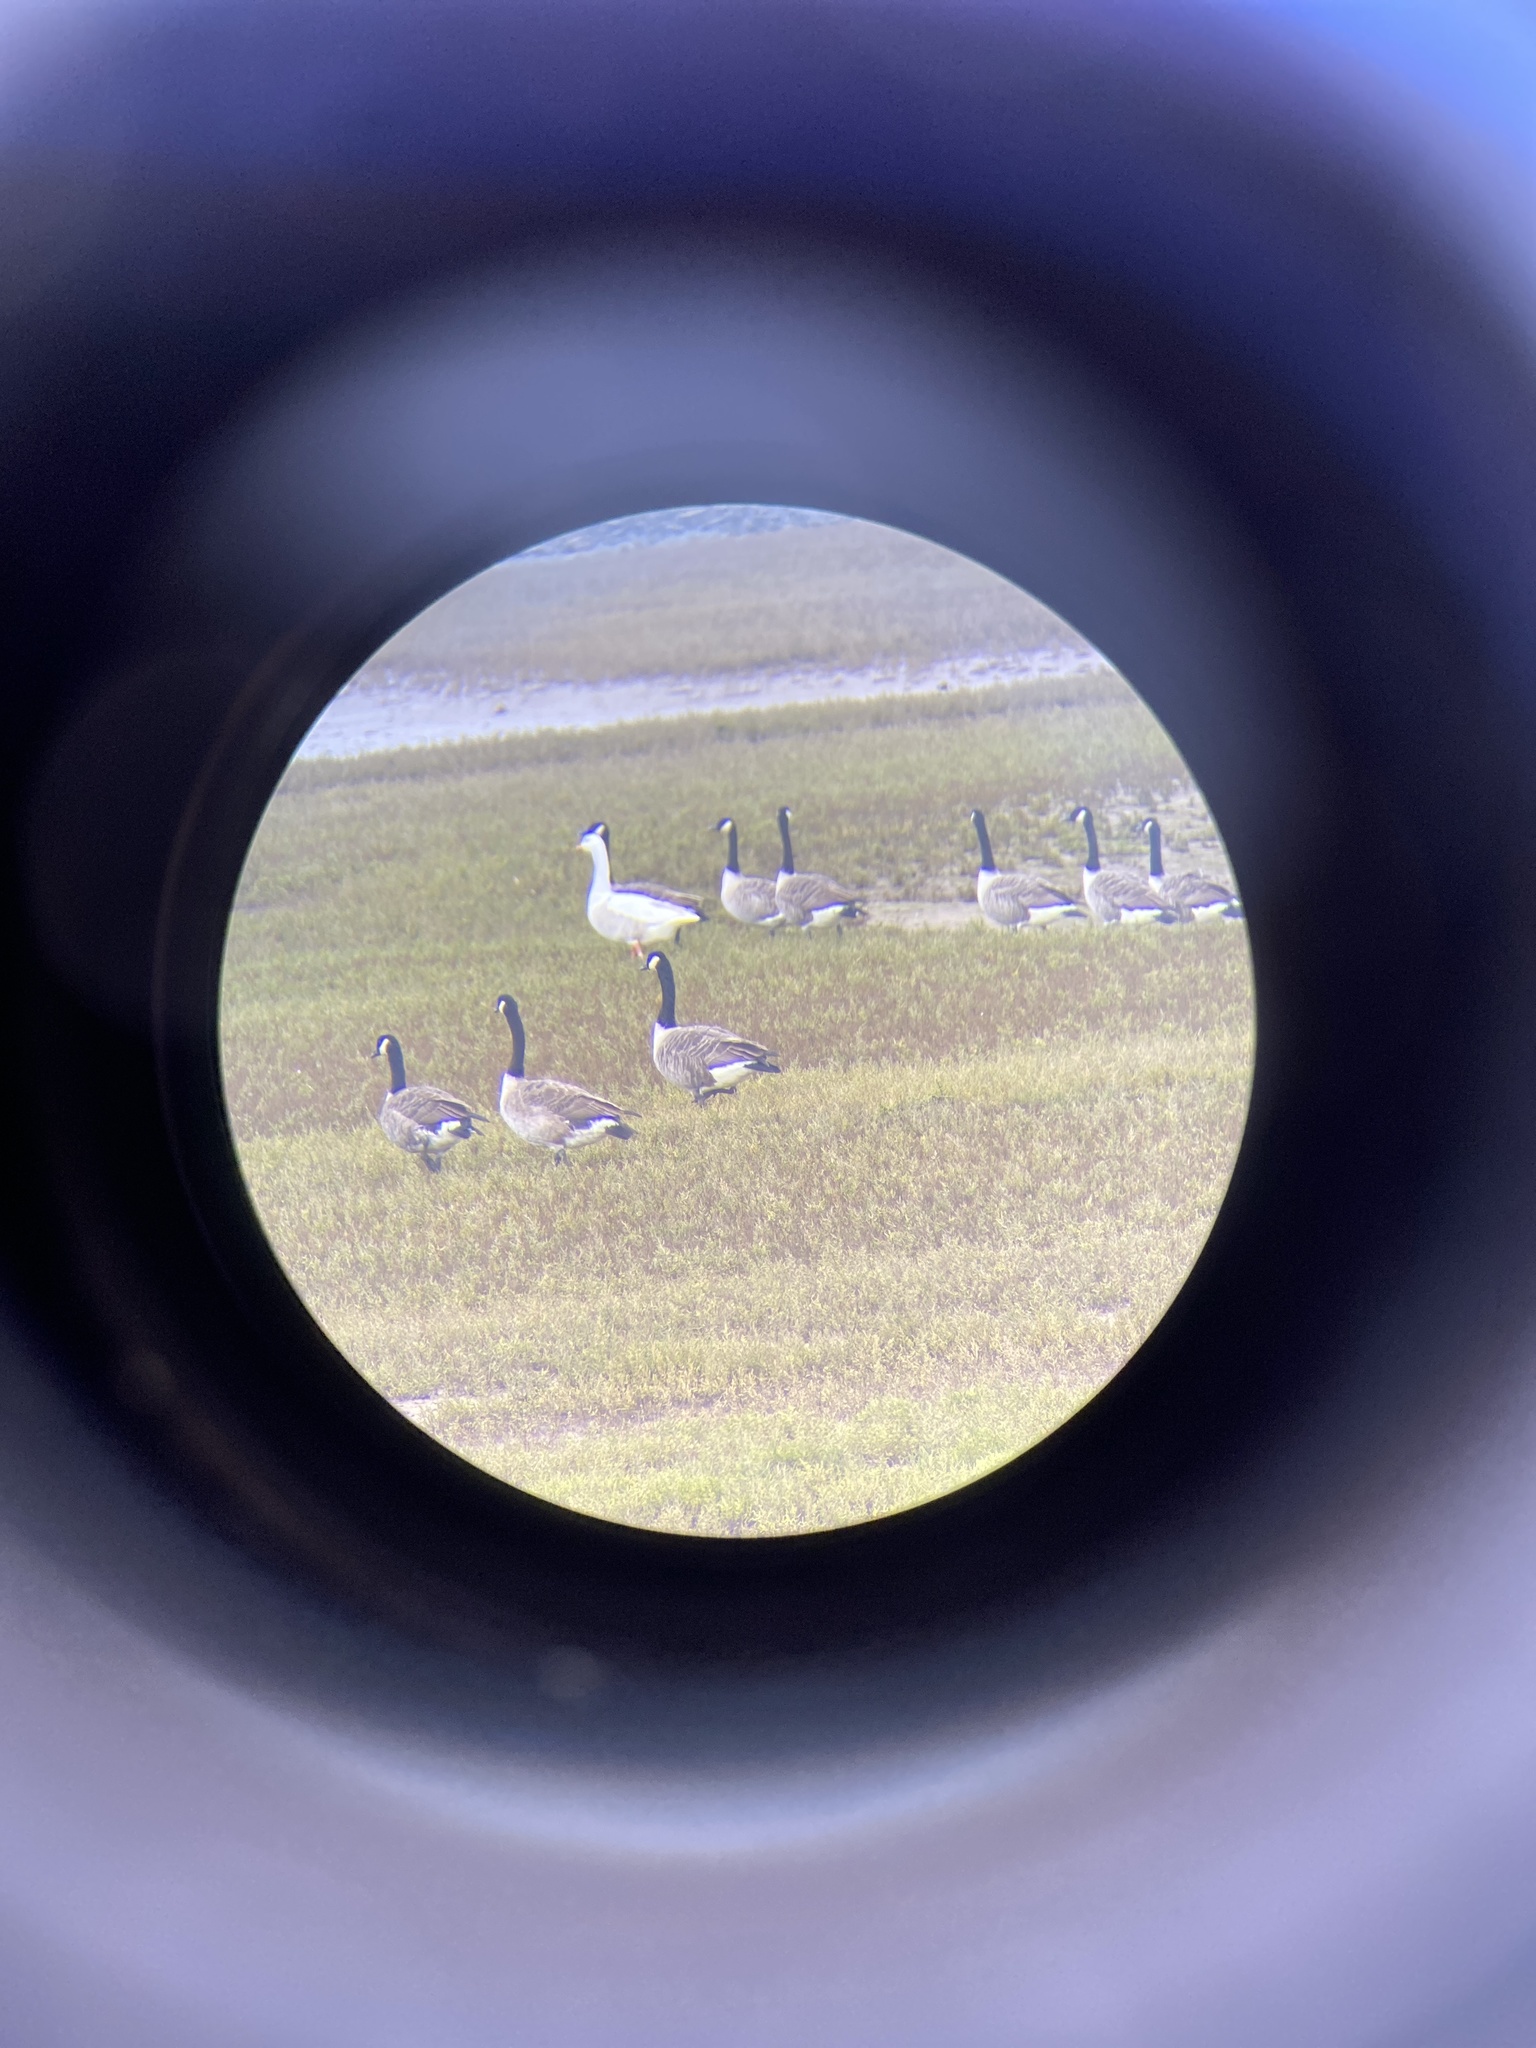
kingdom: Animalia
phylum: Chordata
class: Aves
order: Anseriformes
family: Anatidae
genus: Branta
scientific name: Branta canadensis
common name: Canada goose
